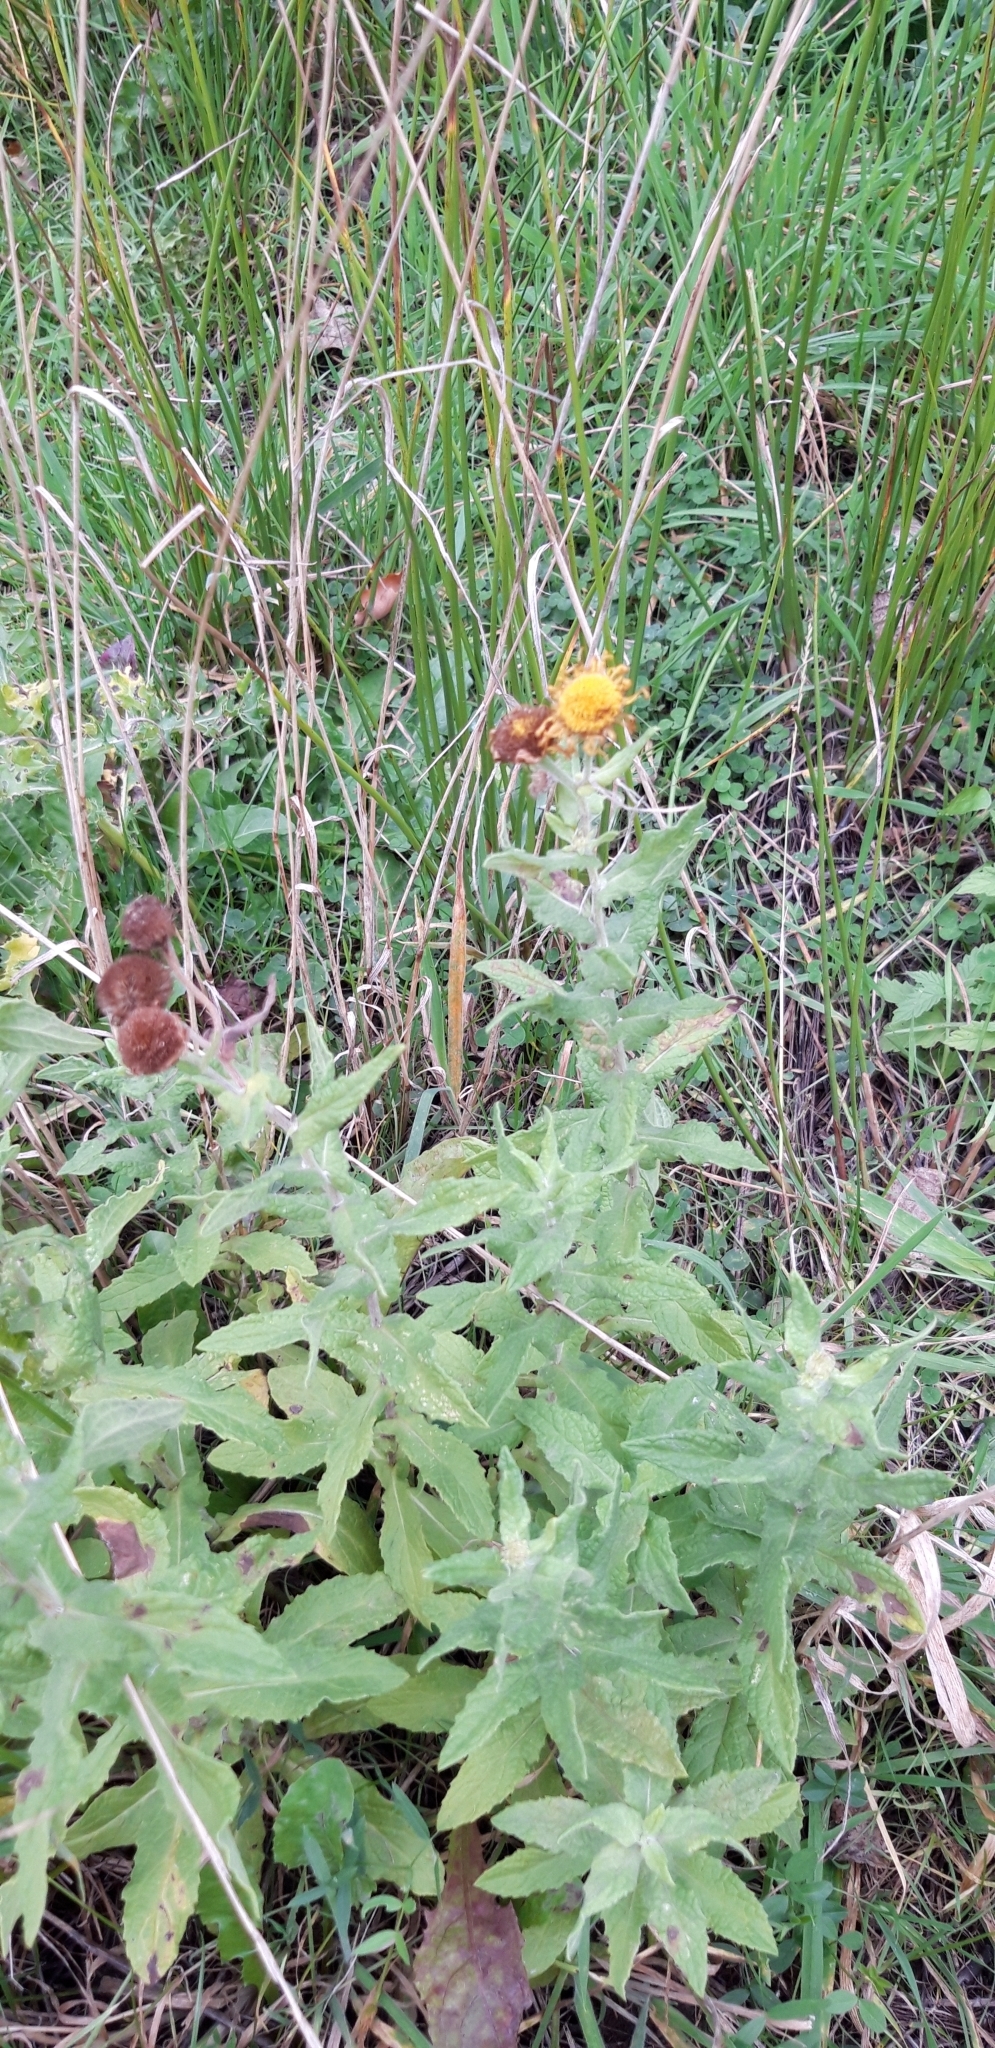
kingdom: Plantae
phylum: Tracheophyta
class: Magnoliopsida
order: Asterales
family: Asteraceae
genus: Pulicaria
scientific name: Pulicaria dysenterica
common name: Common fleabane
